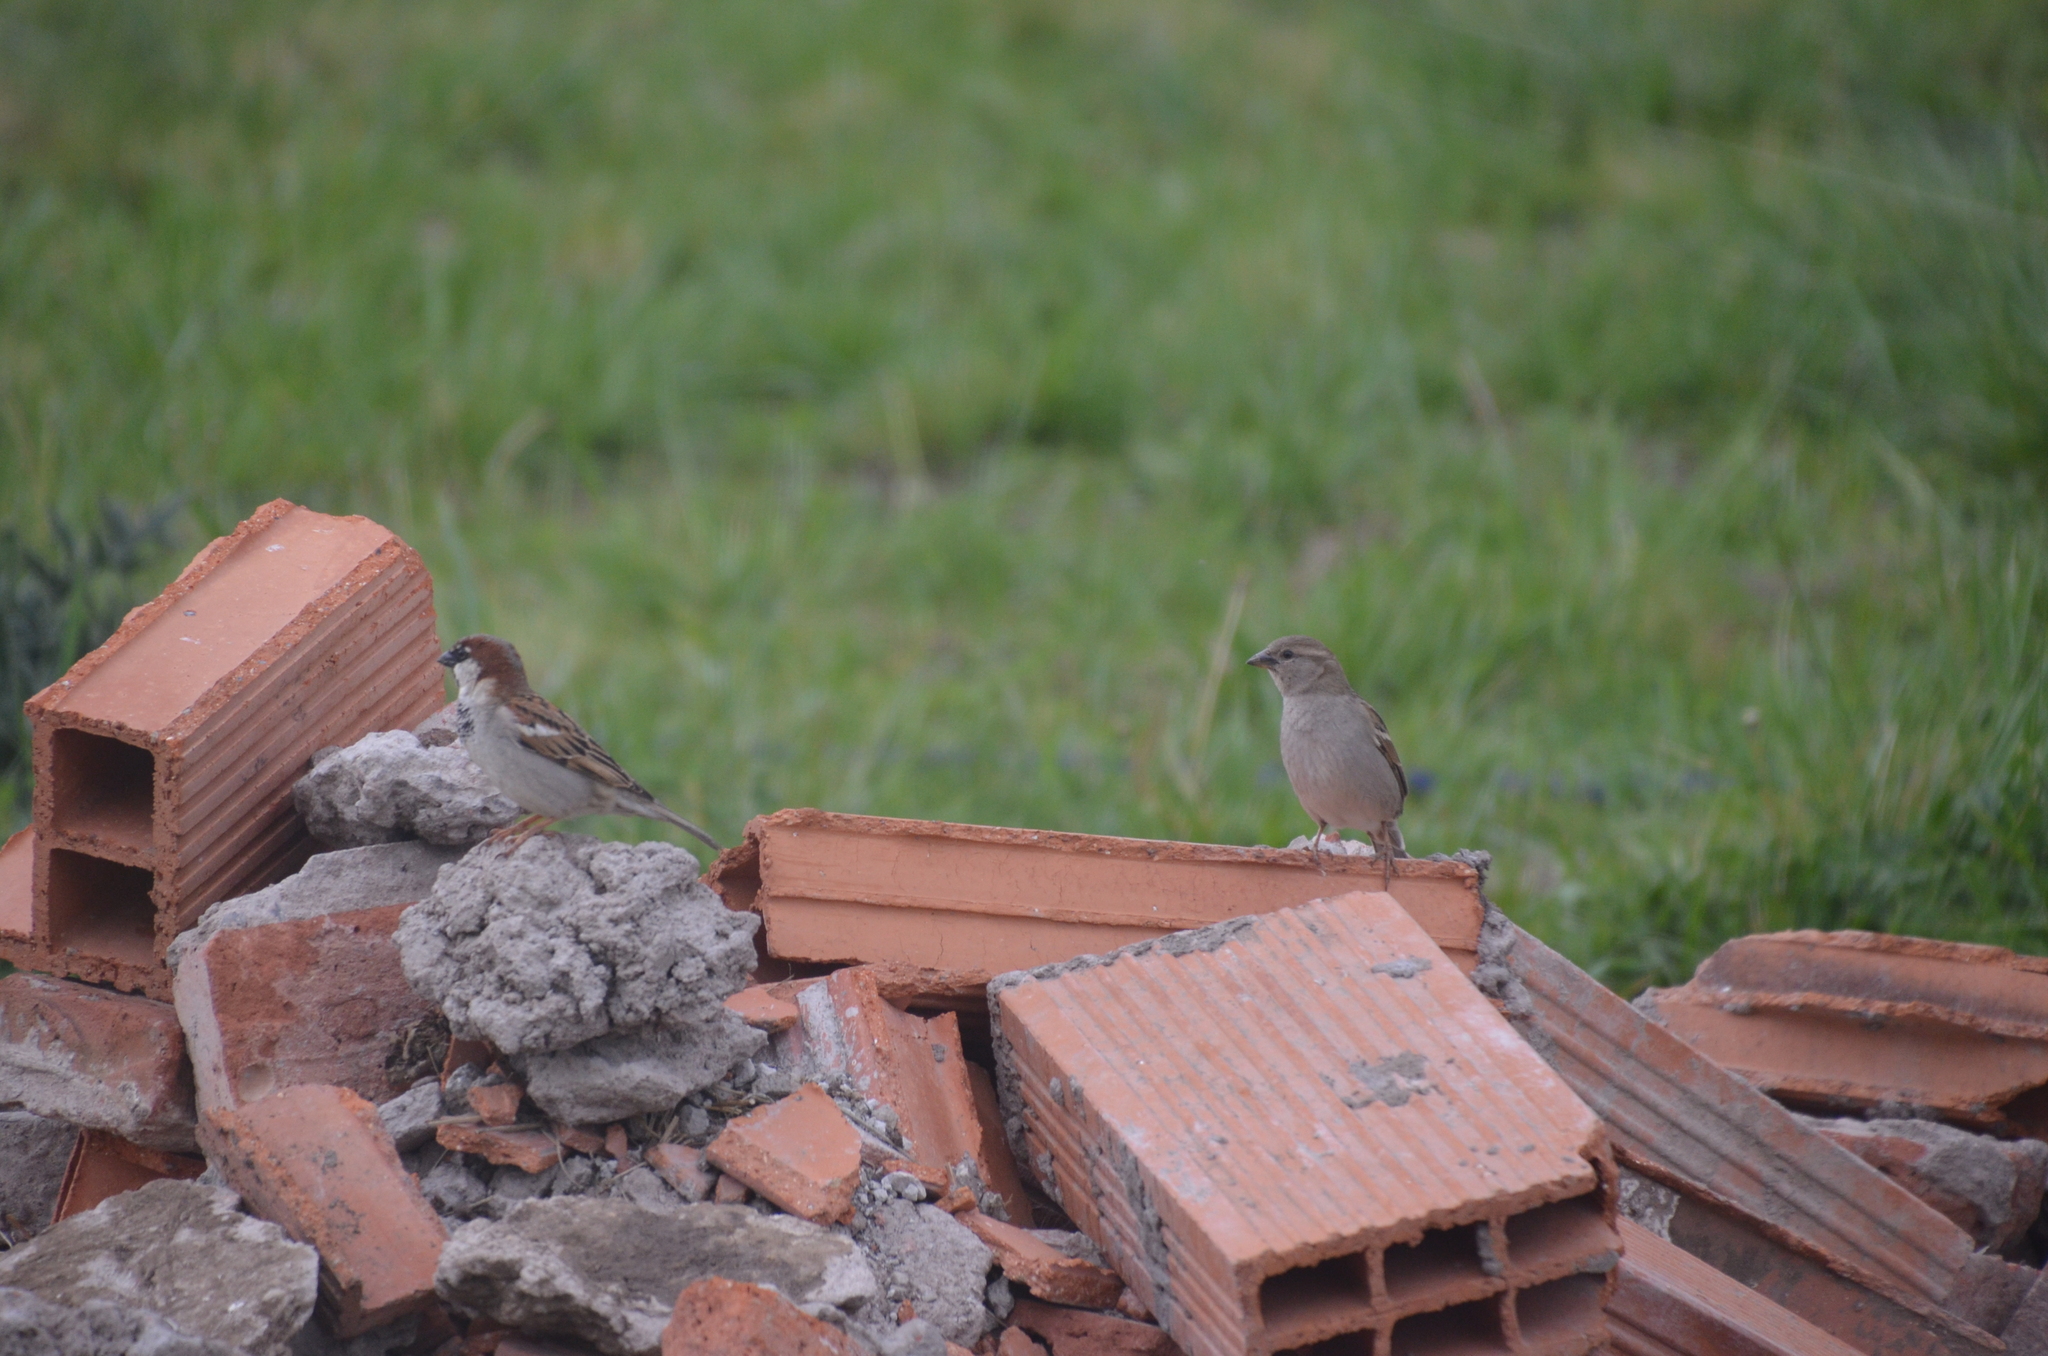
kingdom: Animalia
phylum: Chordata
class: Aves
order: Passeriformes
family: Passeridae
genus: Passer
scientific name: Passer domesticus
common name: House sparrow
